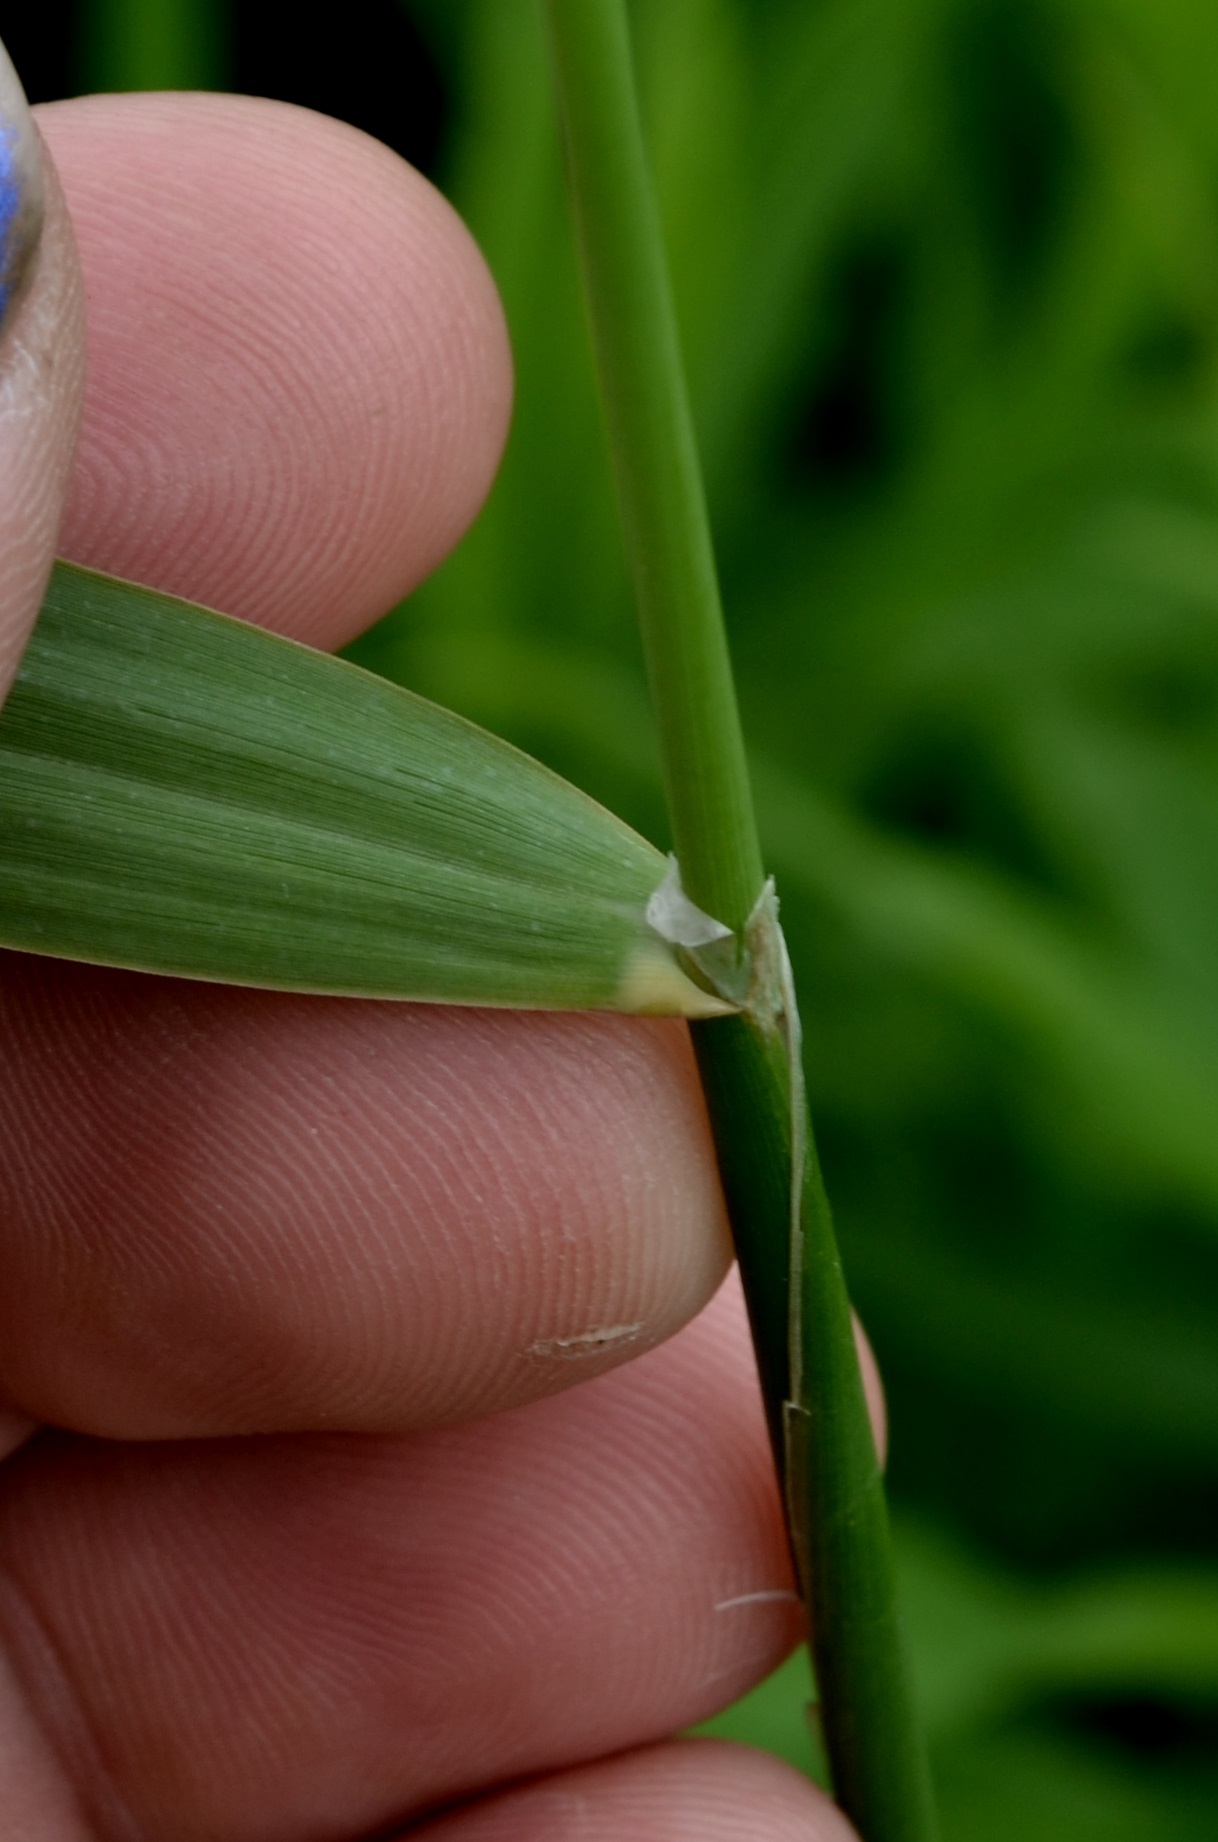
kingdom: Plantae
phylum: Tracheophyta
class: Liliopsida
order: Poales
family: Poaceae
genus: Phalaris
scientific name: Phalaris arundinacea
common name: Reed canary-grass
